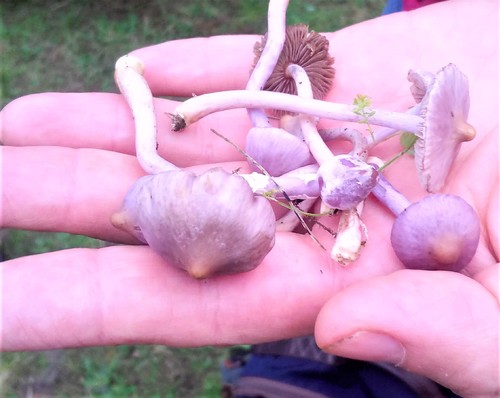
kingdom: Fungi
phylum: Basidiomycota
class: Agaricomycetes
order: Agaricales
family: Inocybaceae
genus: Inocybe
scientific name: Inocybe geophylla
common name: White fibrecap
